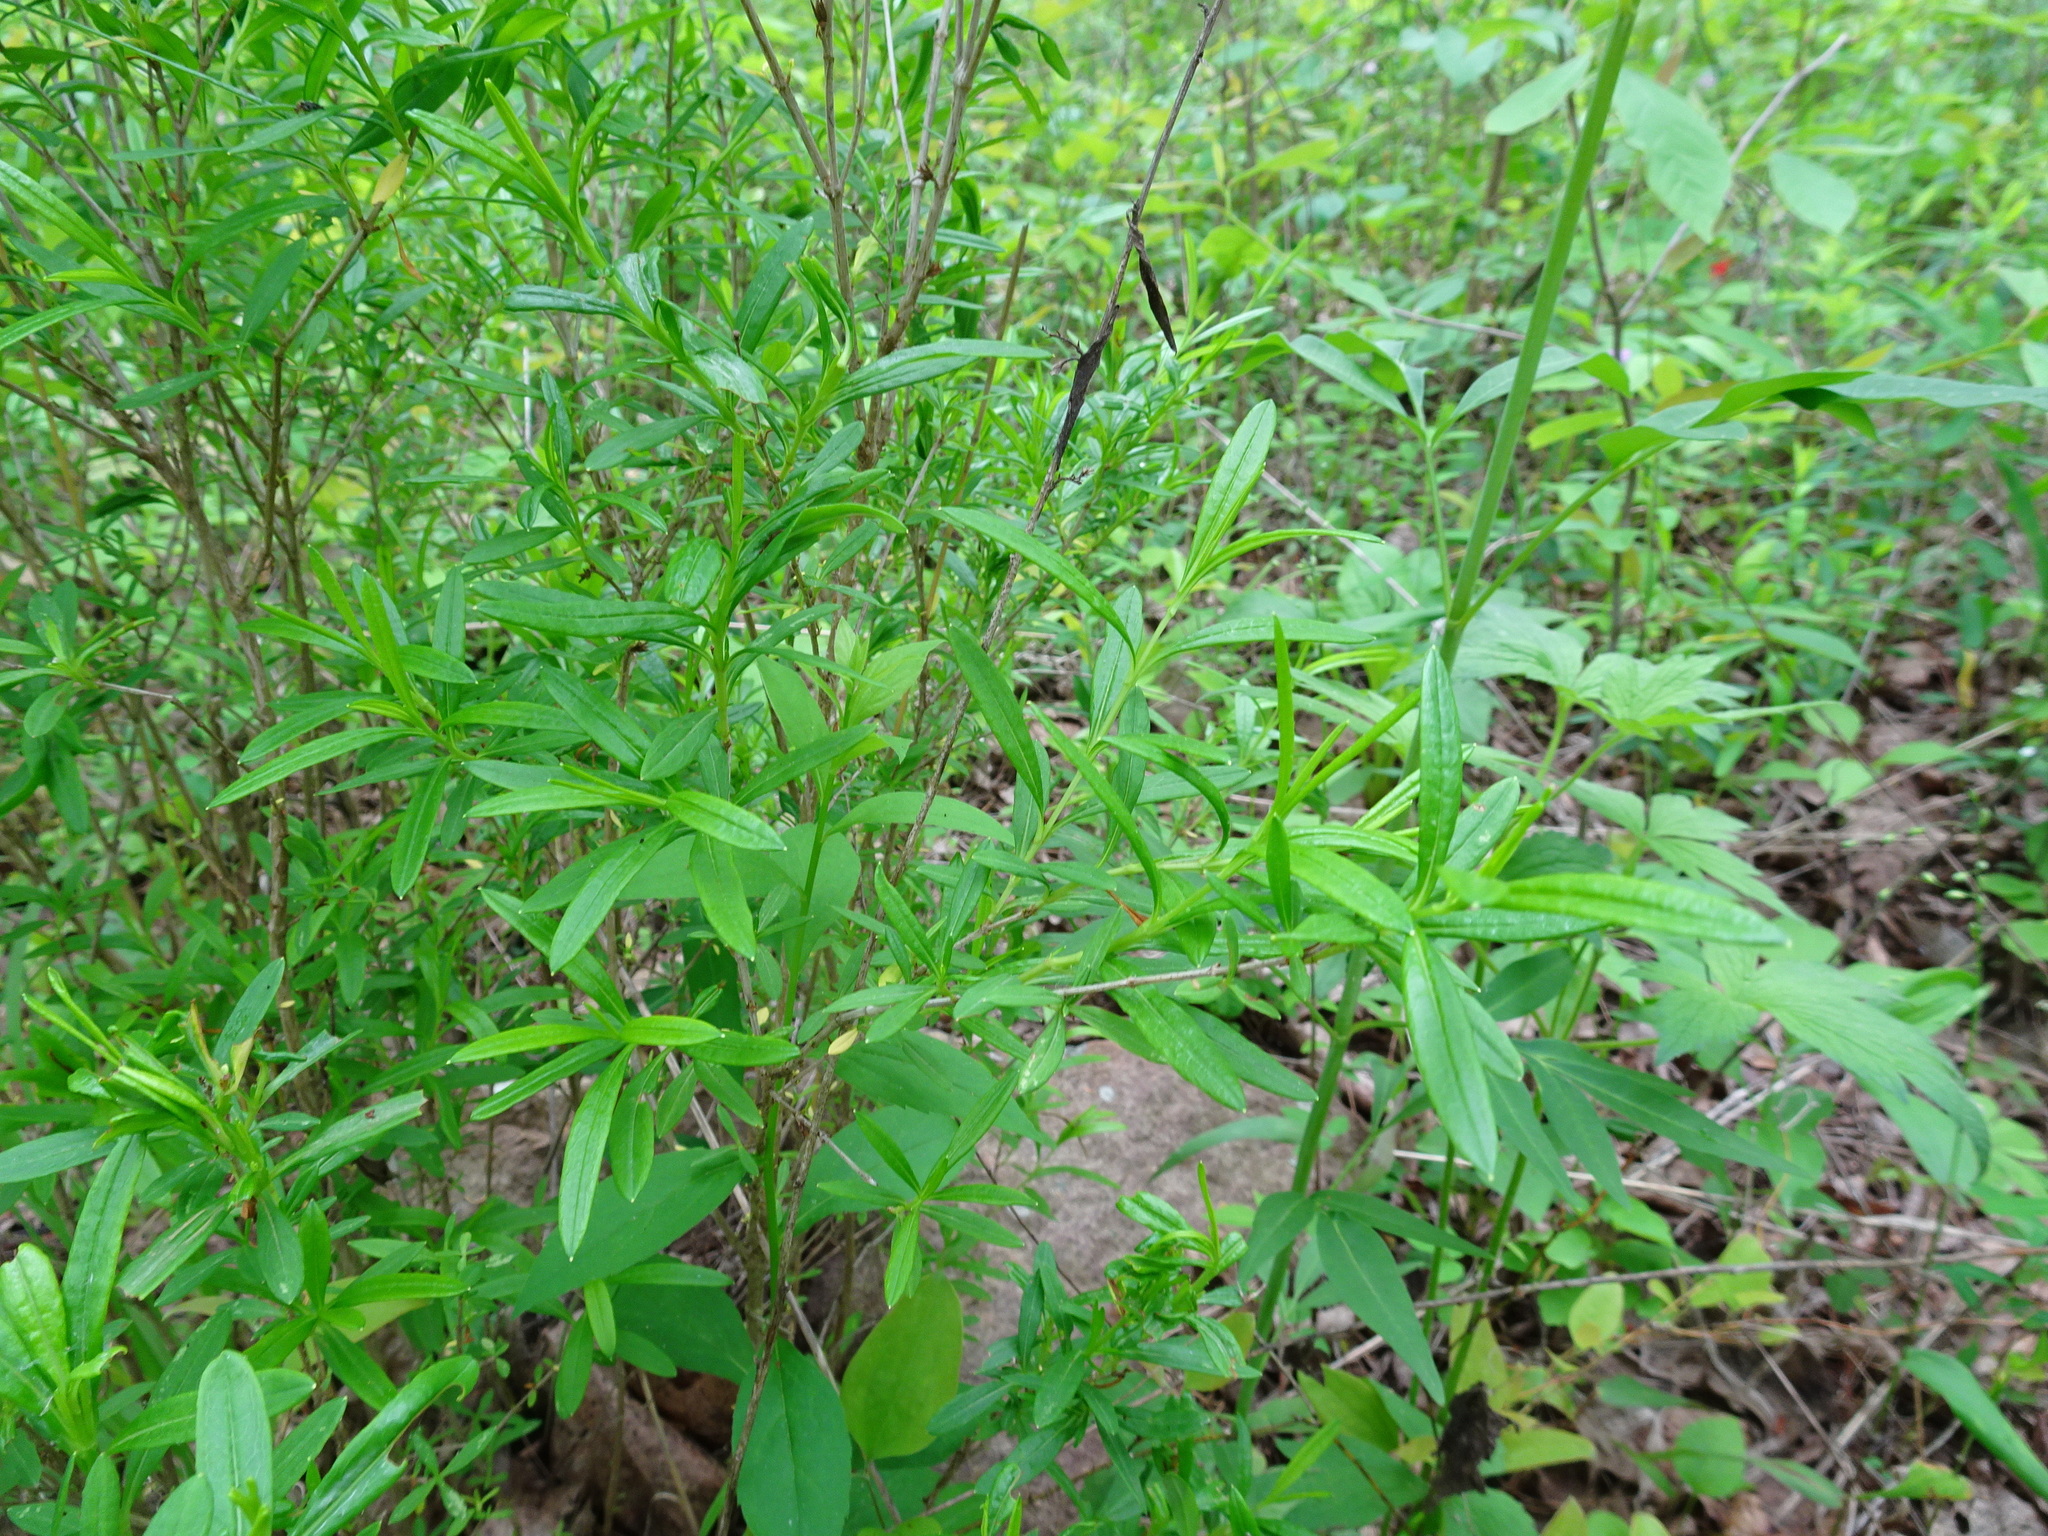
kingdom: Plantae
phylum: Tracheophyta
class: Magnoliopsida
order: Malpighiales
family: Hypericaceae
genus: Hypericum
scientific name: Hypericum prolificum
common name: Shrubby st. john's-wort
